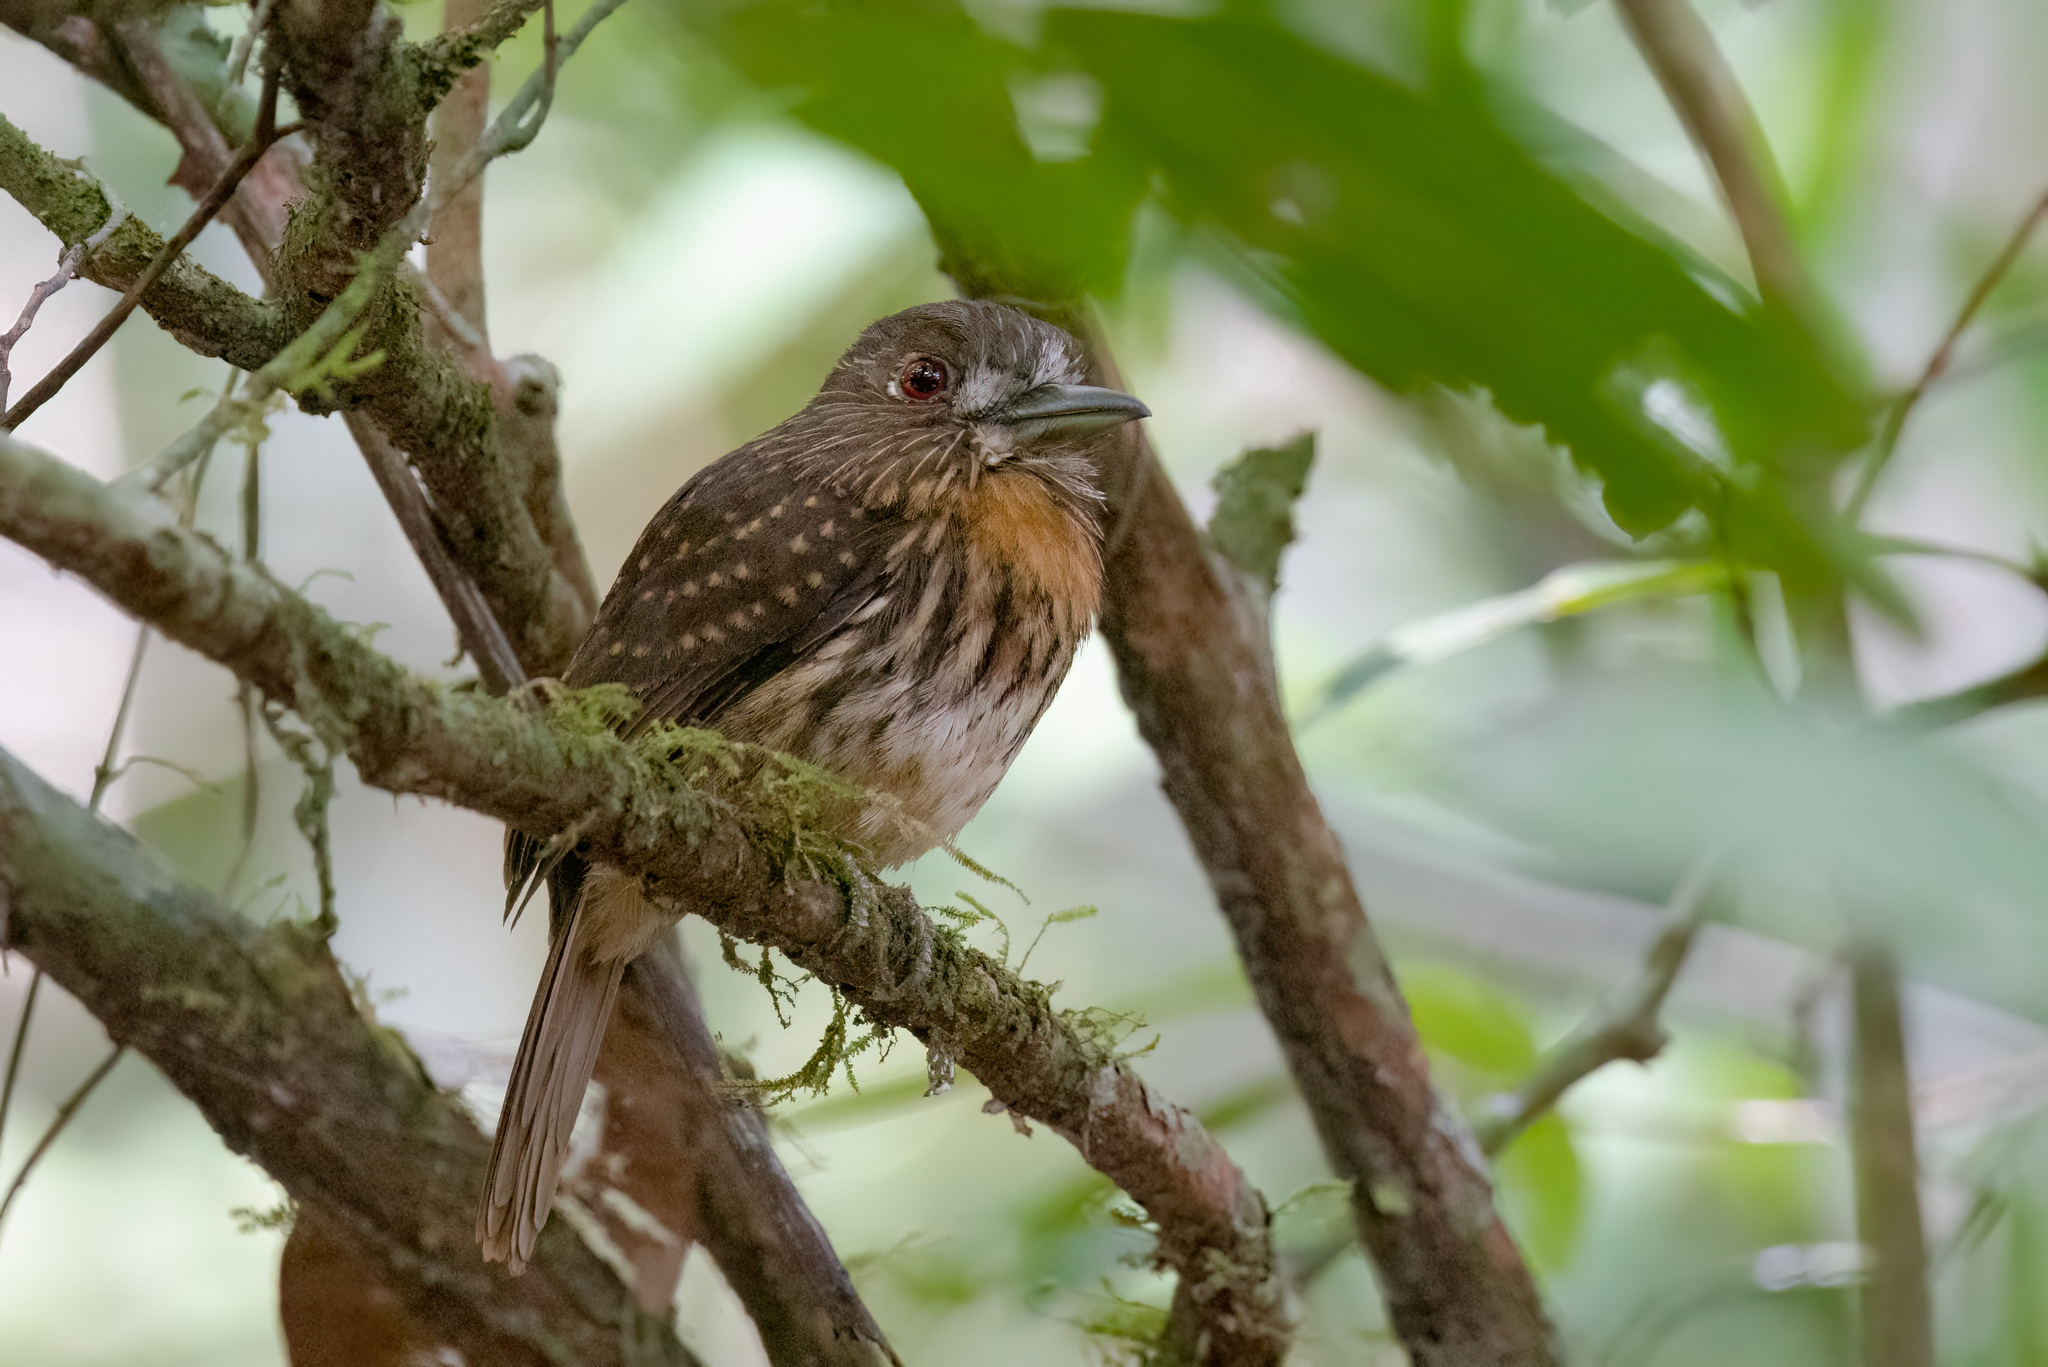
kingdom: Animalia
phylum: Chordata
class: Aves
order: Piciformes
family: Bucconidae
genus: Malacoptila
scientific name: Malacoptila panamensis
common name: White-whiskered puffbird
